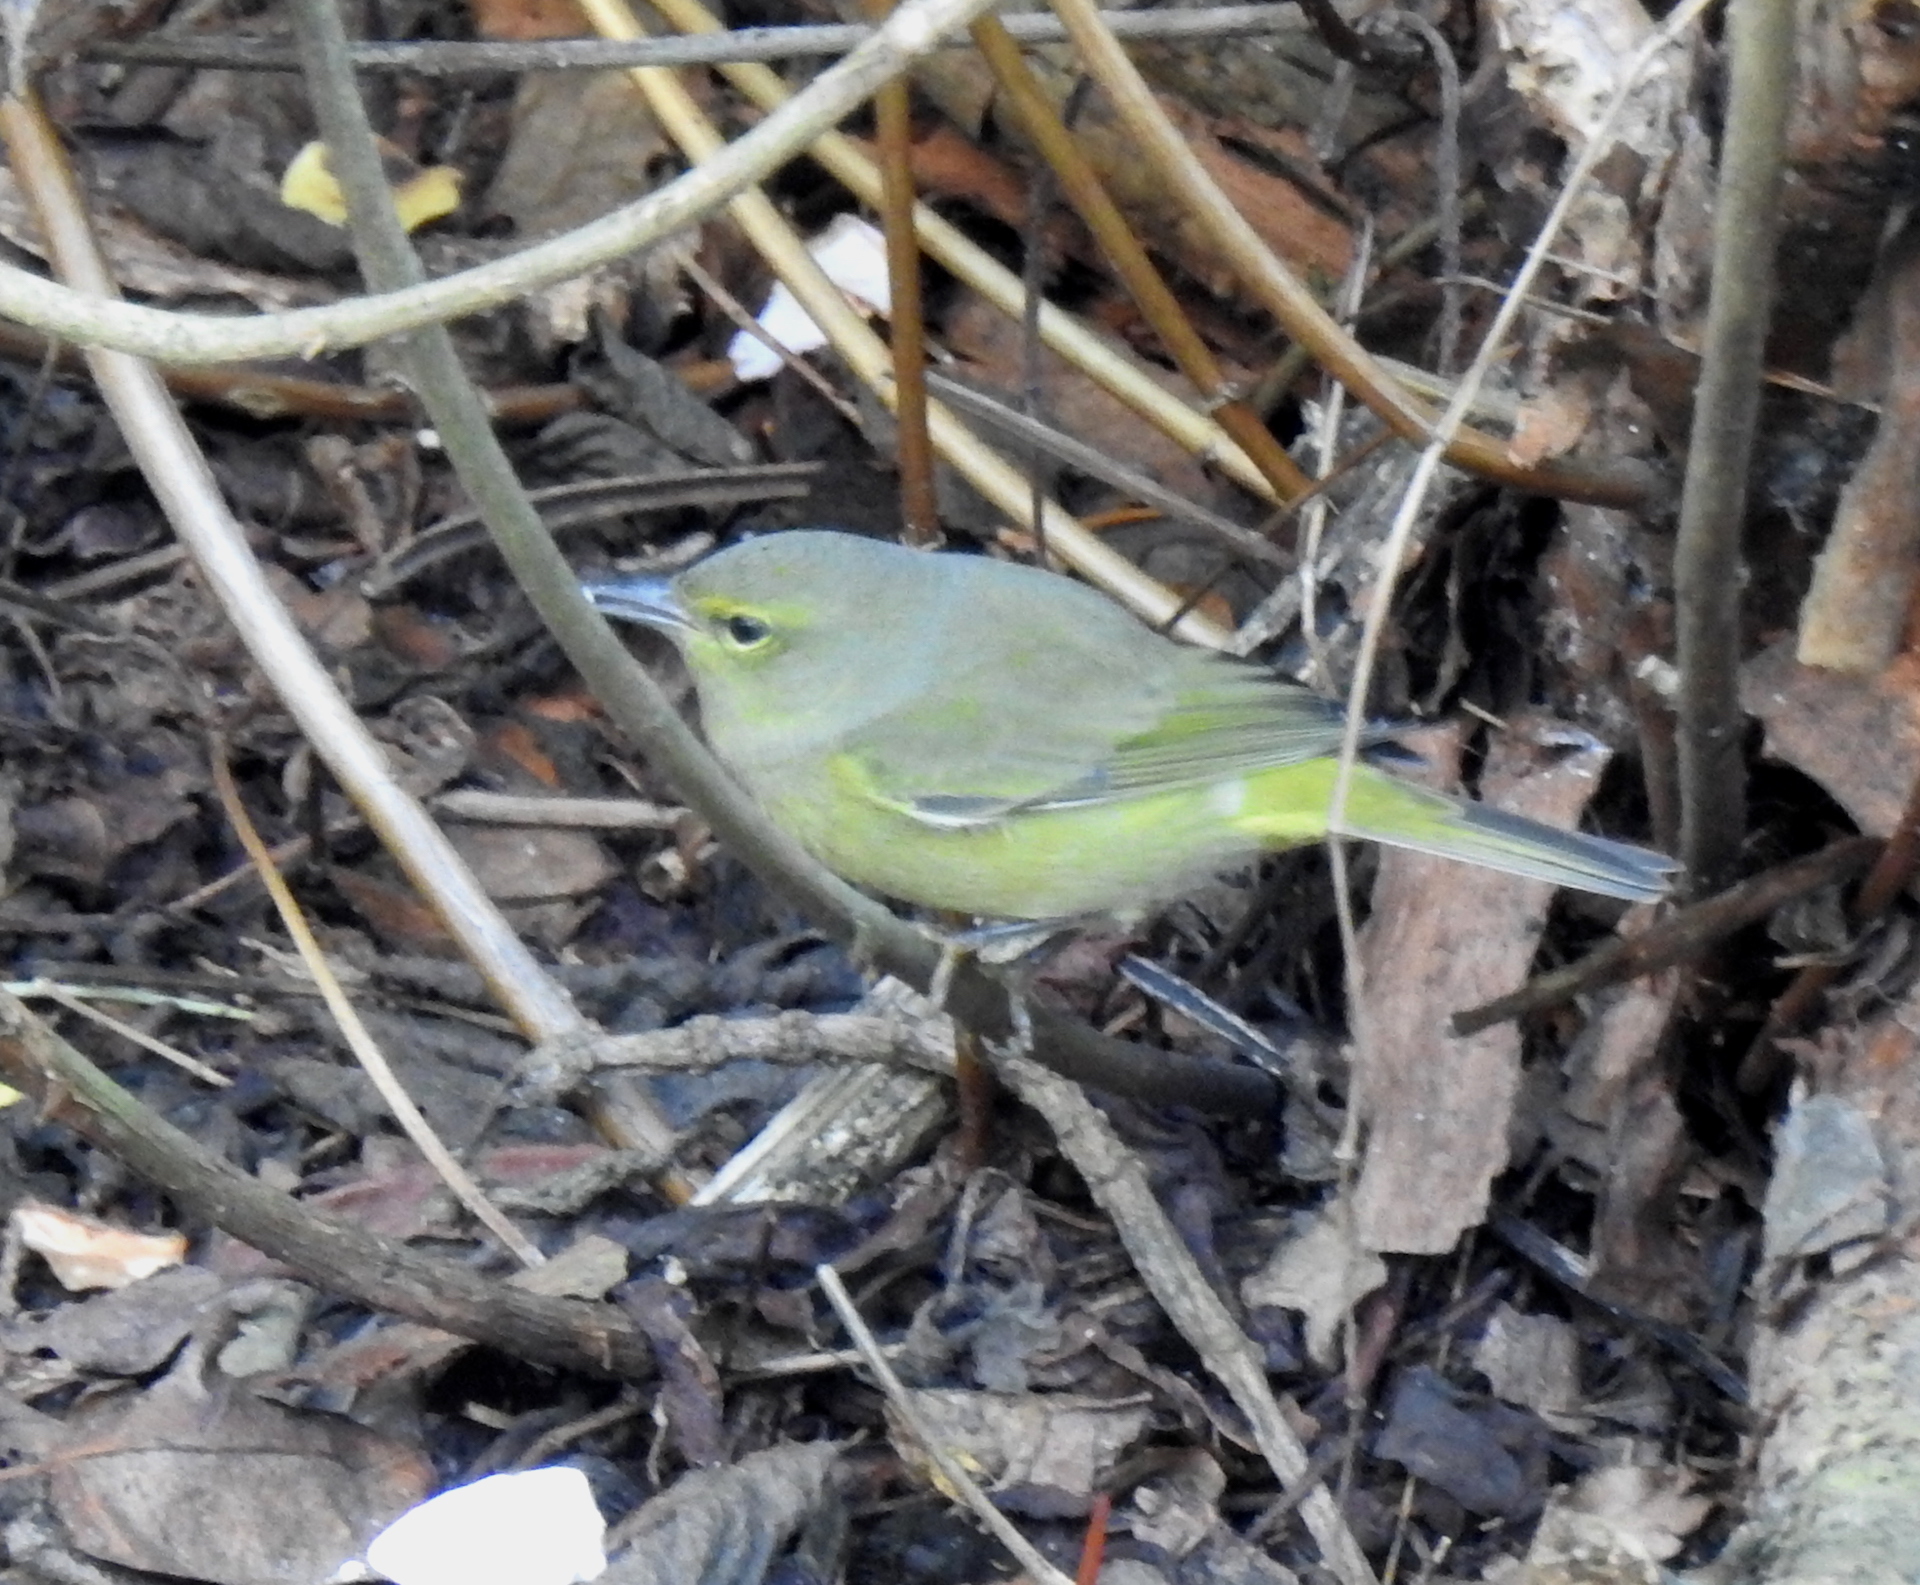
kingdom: Animalia
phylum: Chordata
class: Aves
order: Passeriformes
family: Parulidae
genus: Leiothlypis
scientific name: Leiothlypis celata
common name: Orange-crowned warbler
